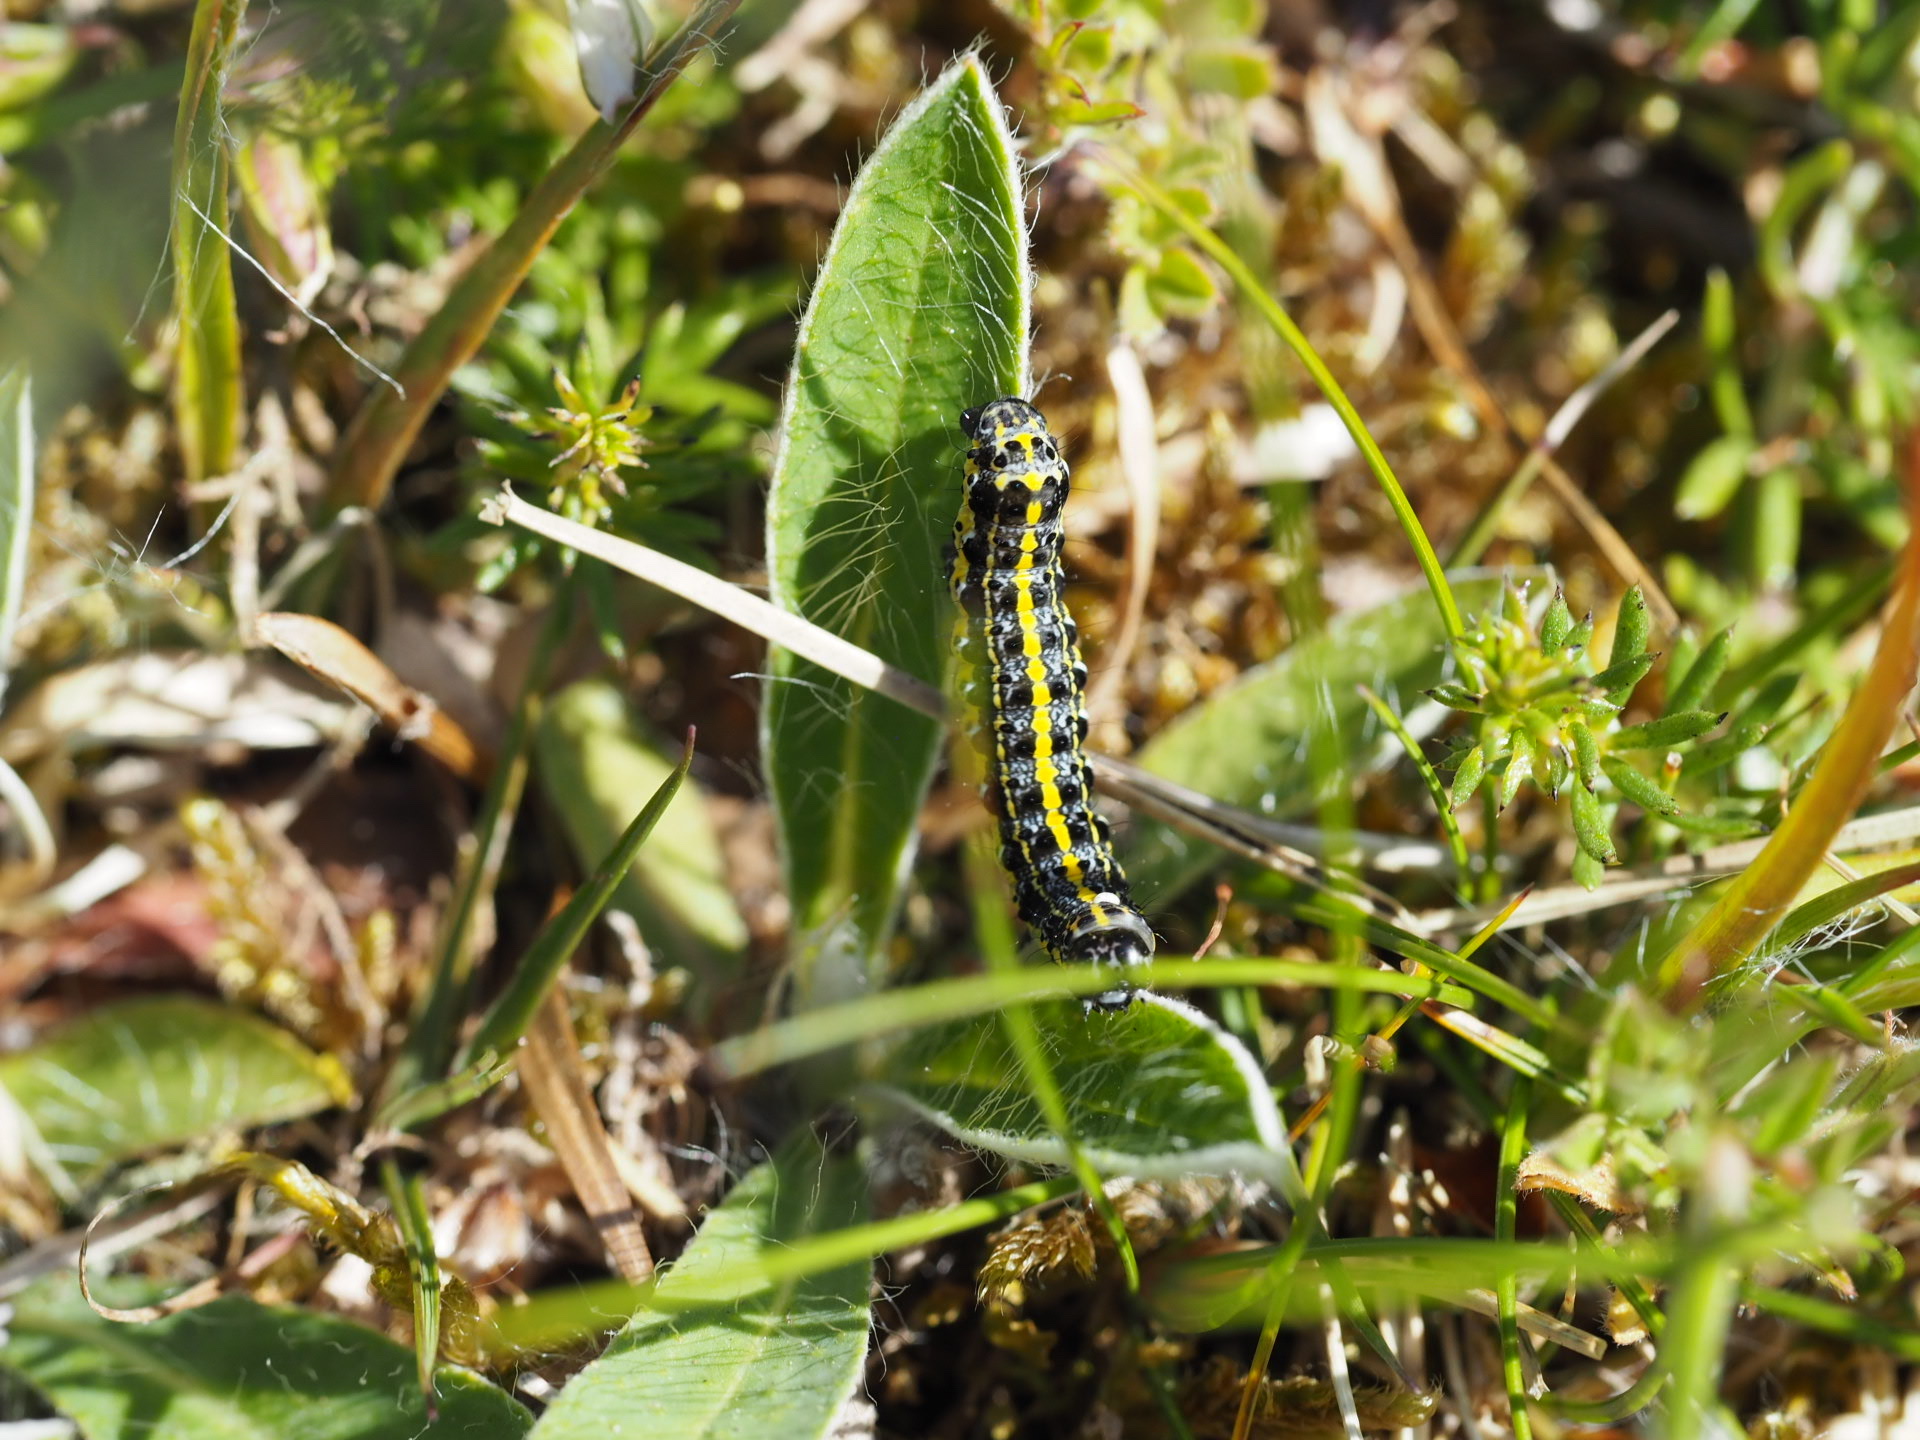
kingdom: Animalia
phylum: Arthropoda
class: Insecta
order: Lepidoptera
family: Noctuidae
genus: Orthosia
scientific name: Orthosia miniosa
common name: Blossom underwing
